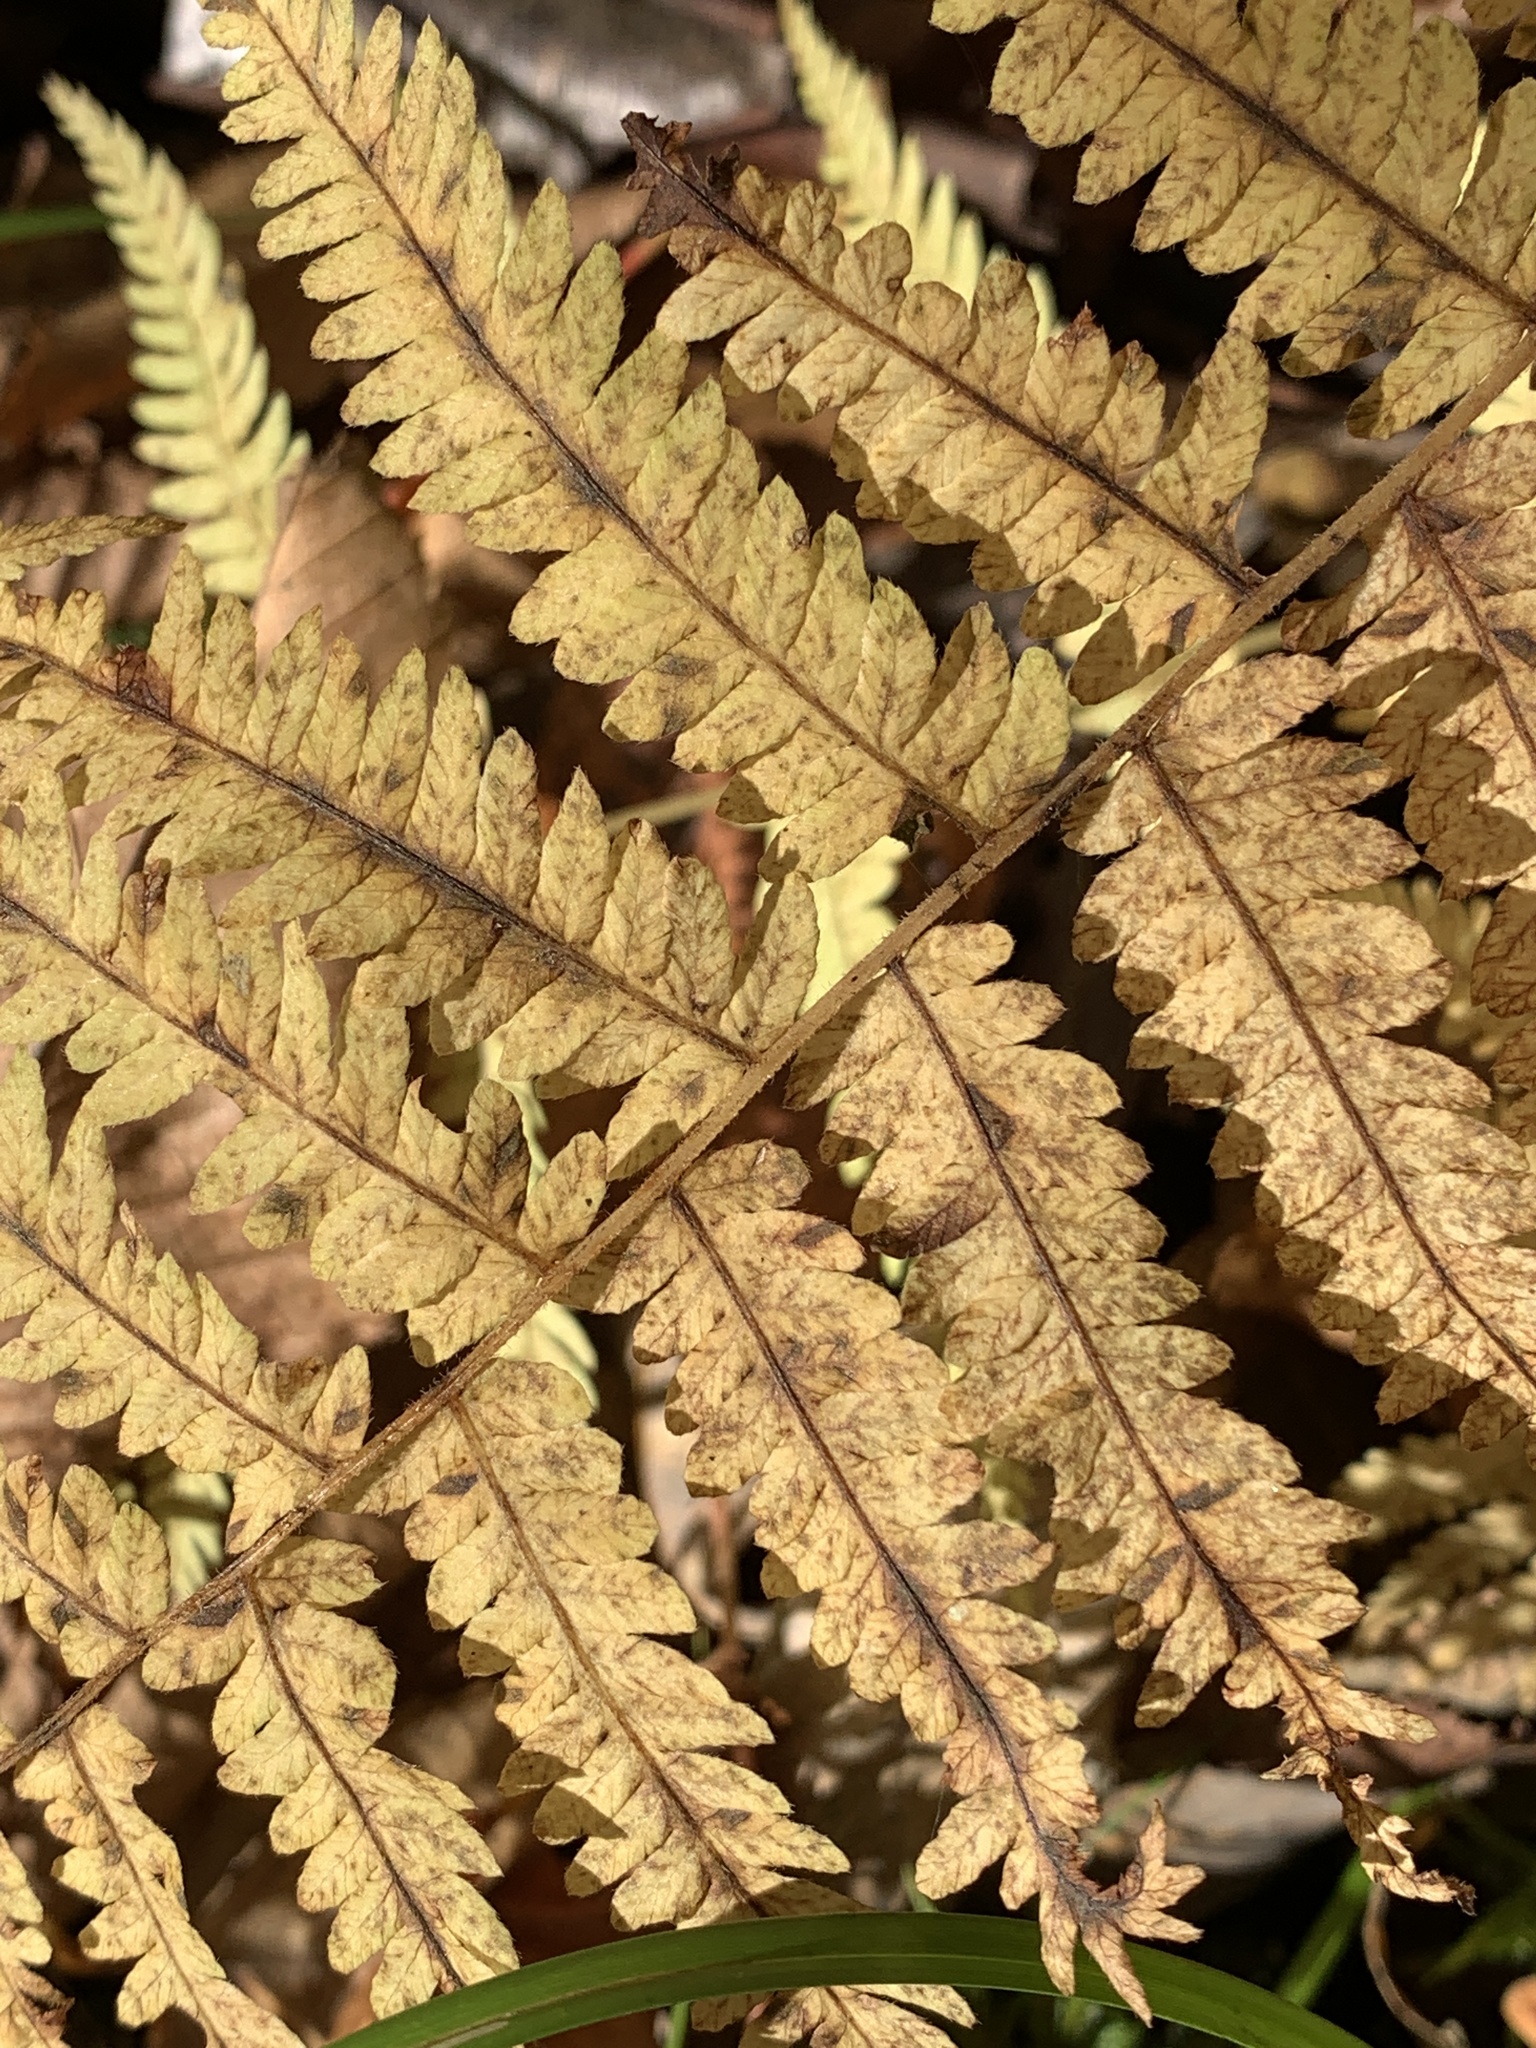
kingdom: Plantae
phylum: Tracheophyta
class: Polypodiopsida
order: Polypodiales
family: Thelypteridaceae
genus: Amauropelta
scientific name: Amauropelta noveboracensis
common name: New york fern
